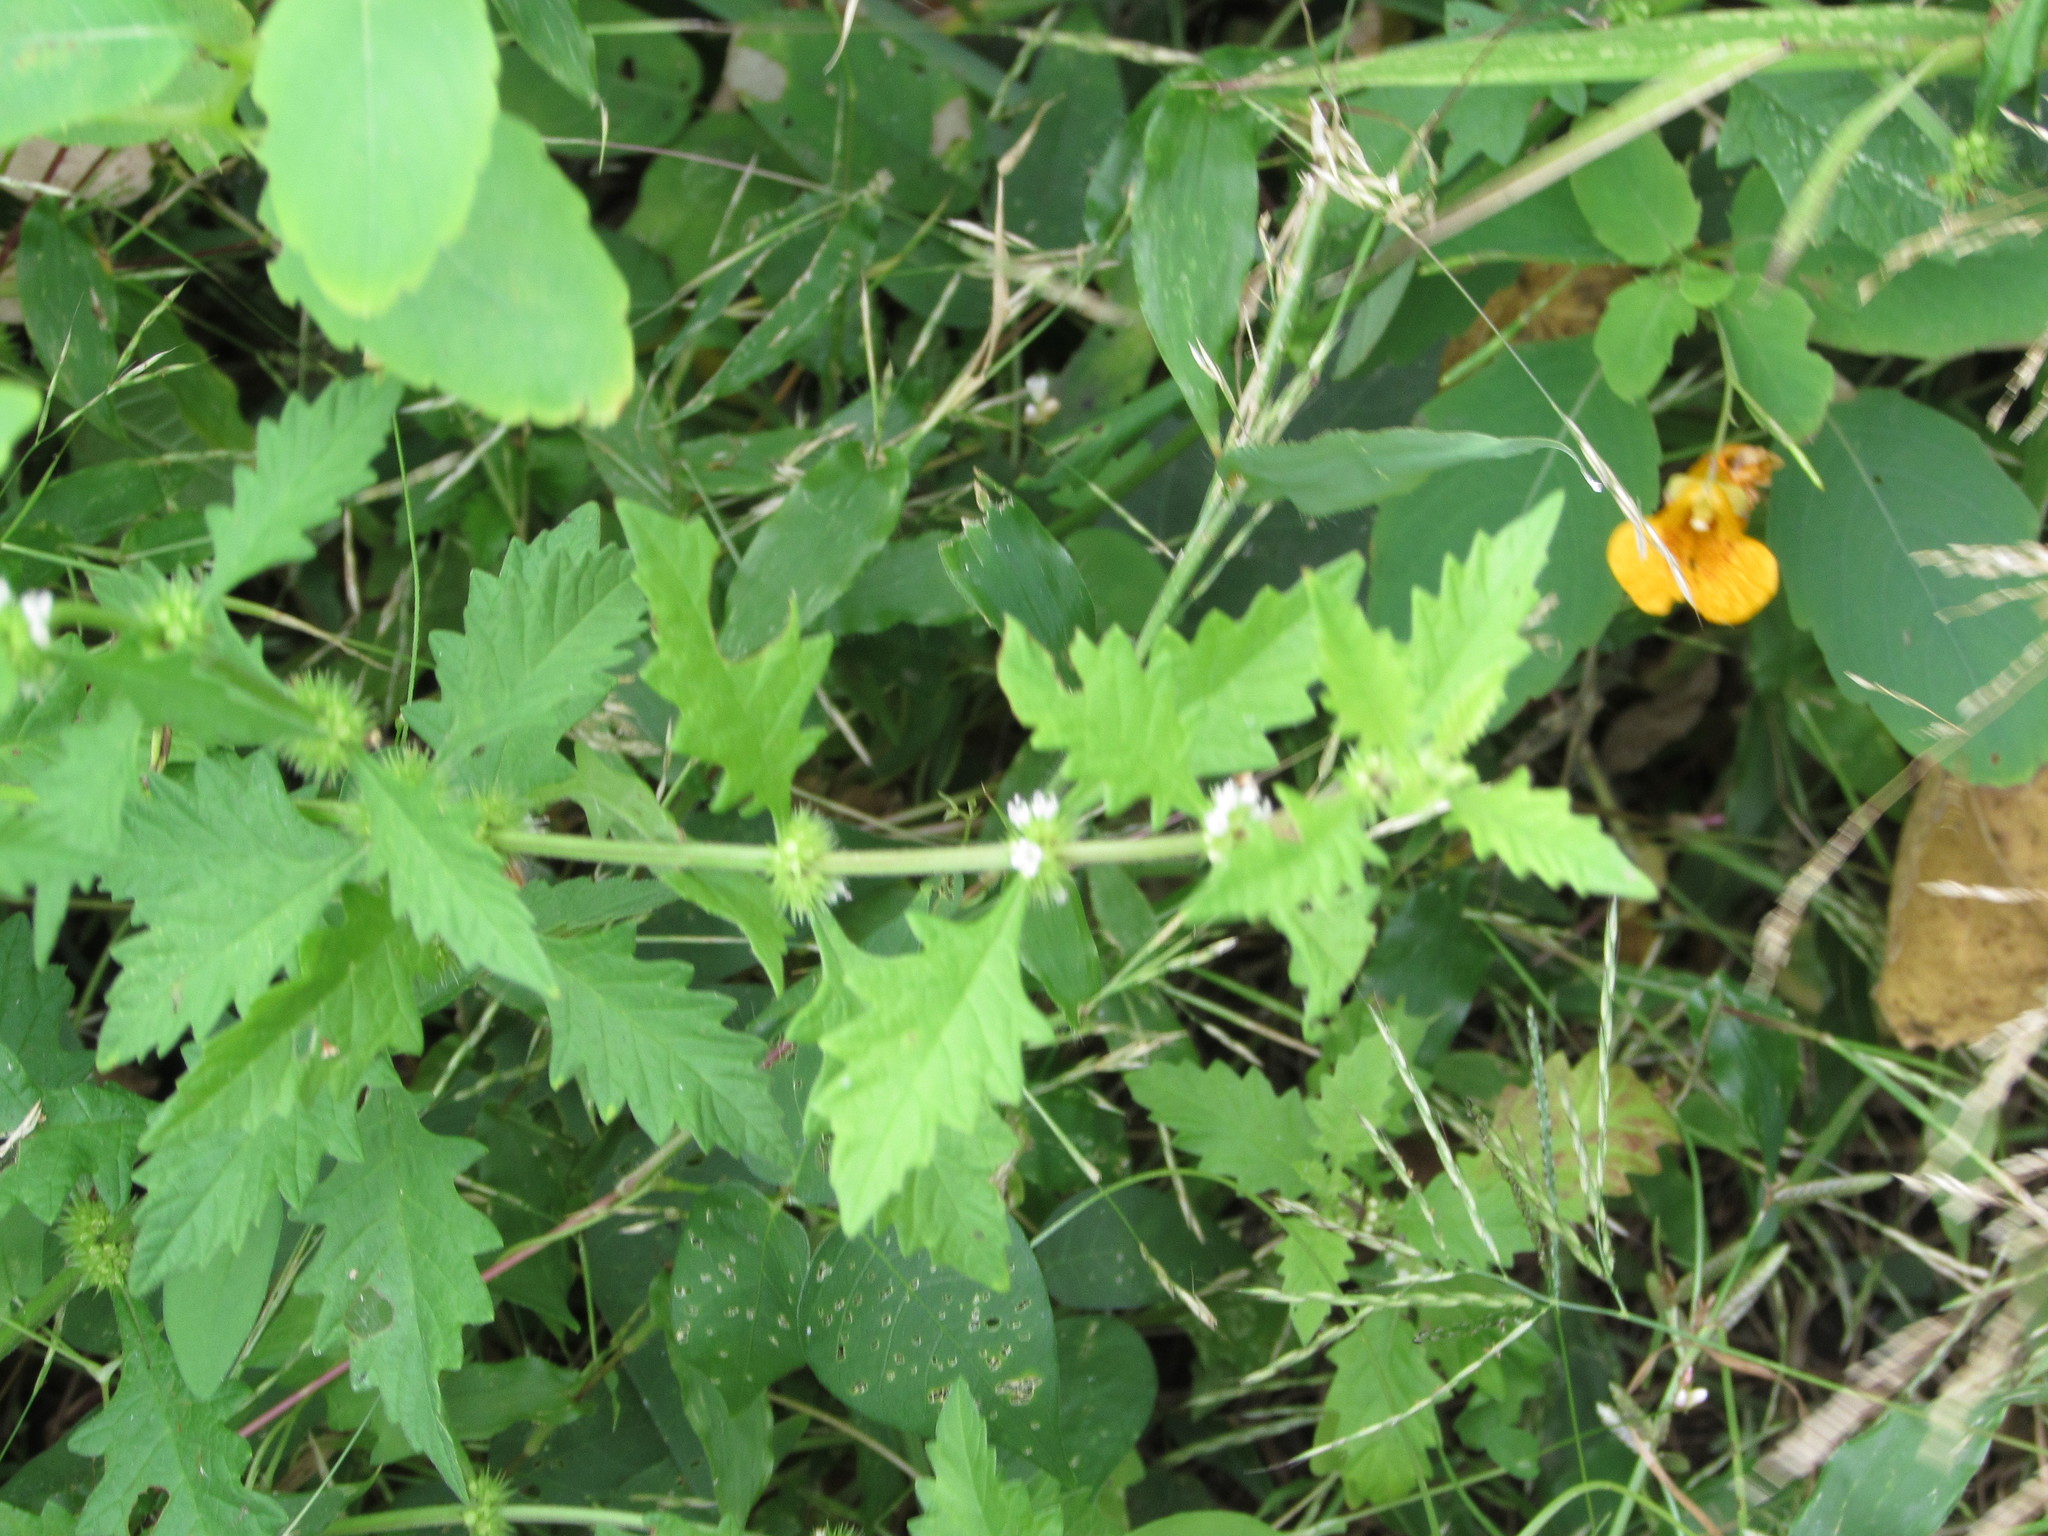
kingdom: Plantae
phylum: Tracheophyta
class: Magnoliopsida
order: Ericales
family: Balsaminaceae
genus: Impatiens
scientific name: Impatiens capensis
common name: Orange balsam
